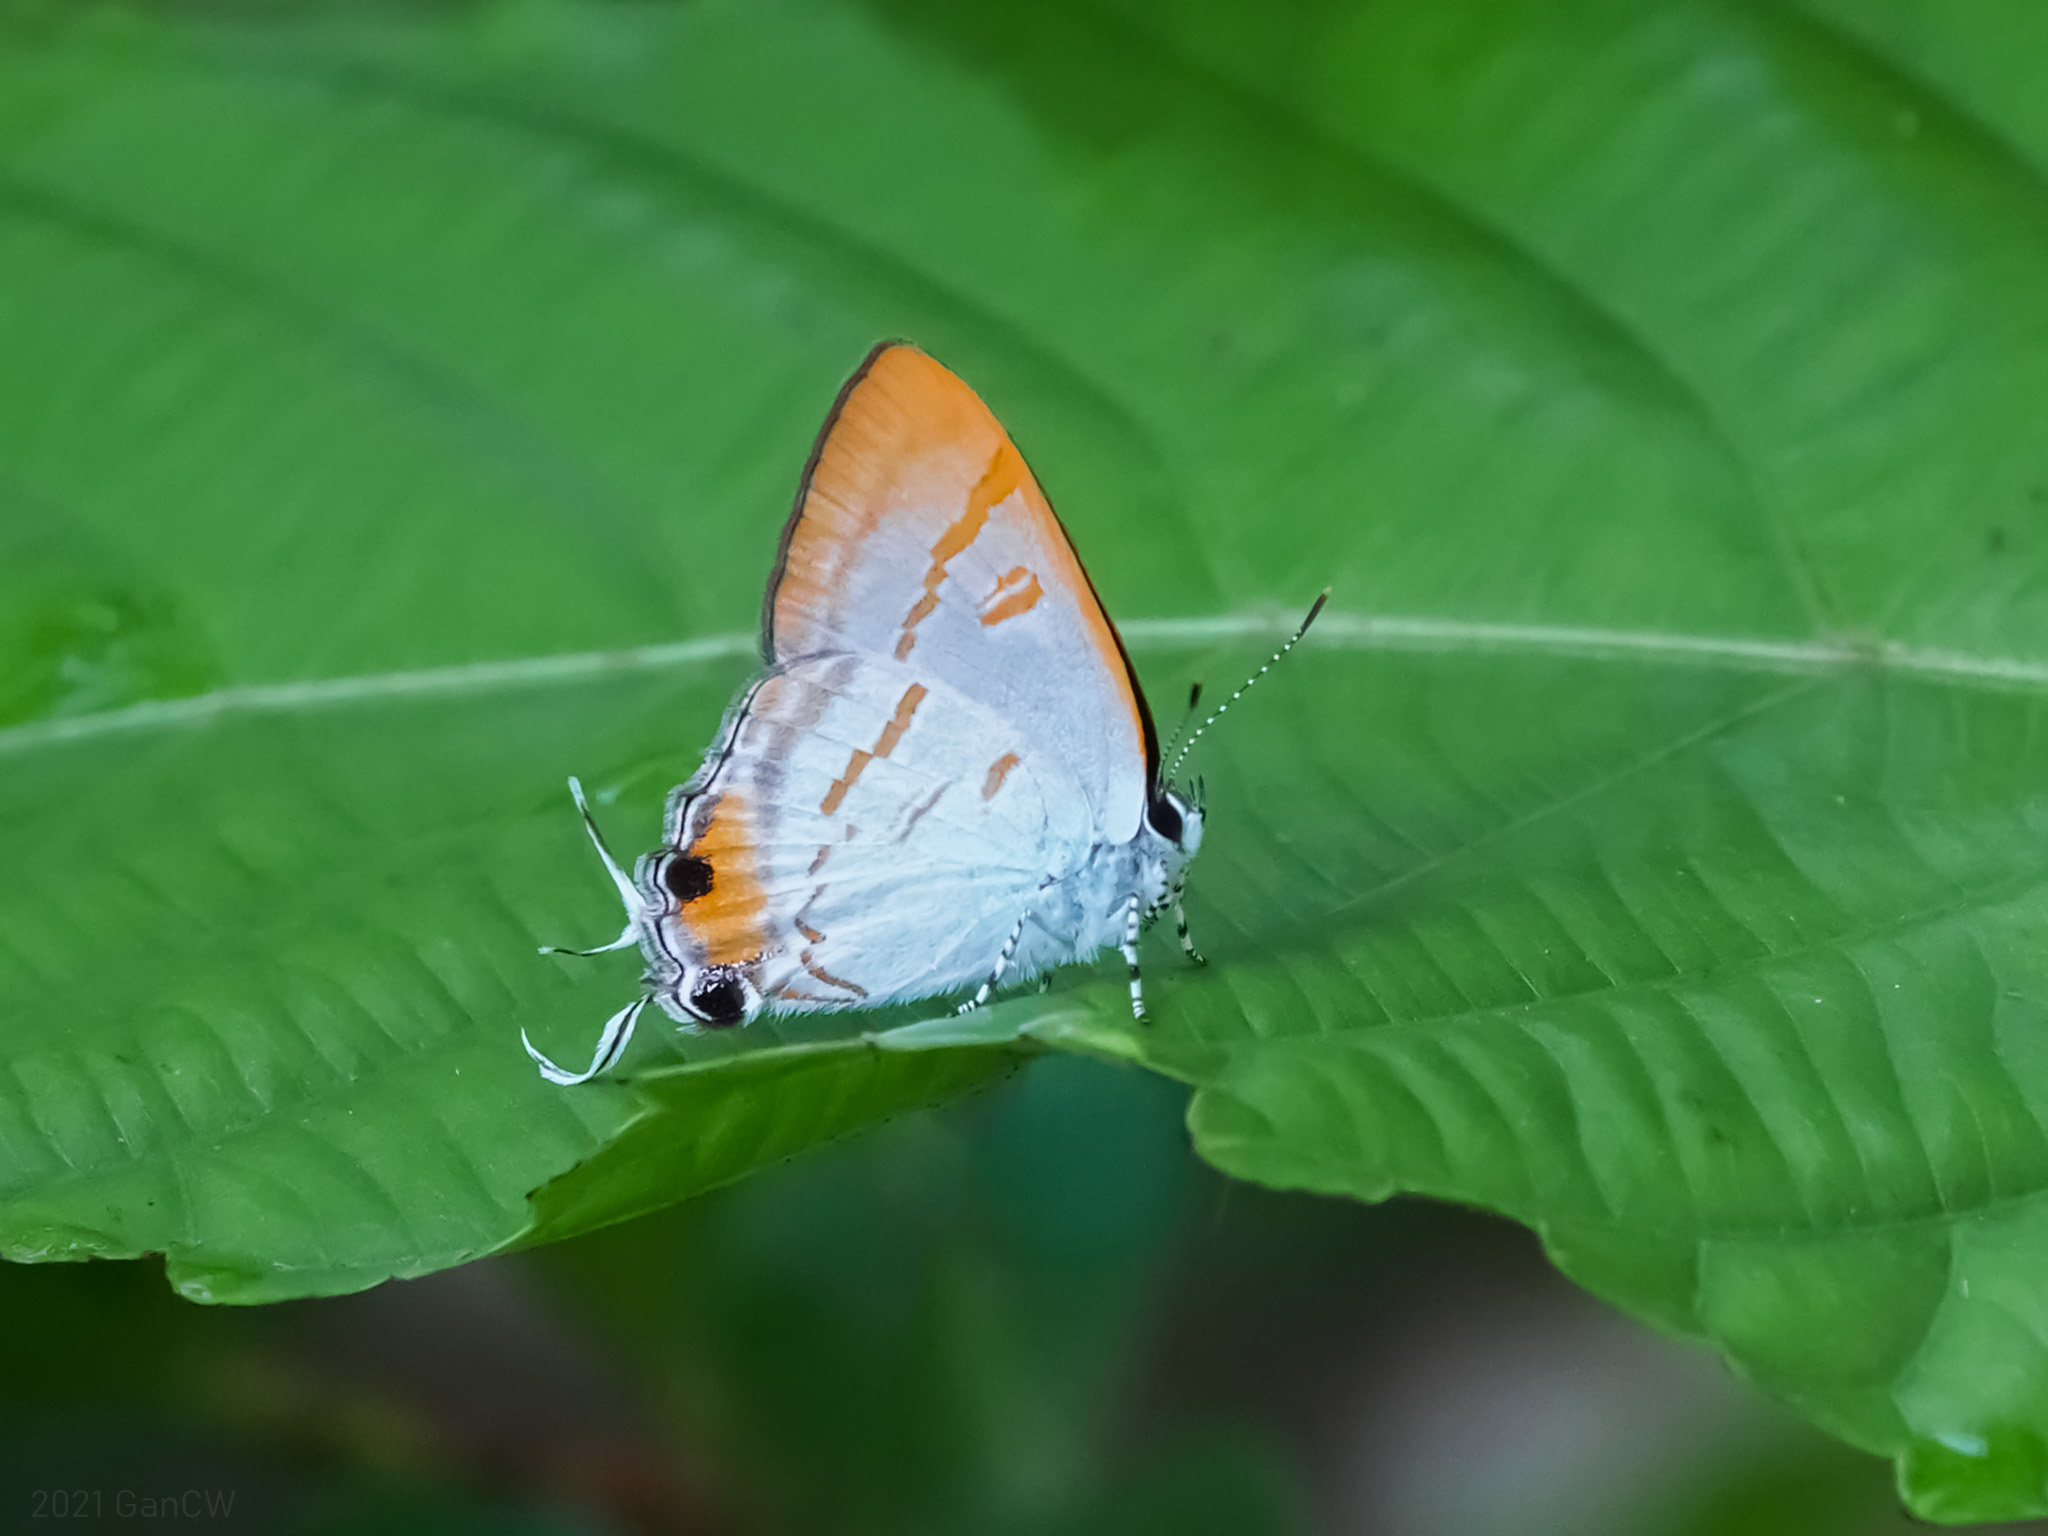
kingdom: Animalia
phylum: Arthropoda
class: Insecta
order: Lepidoptera
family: Lycaenidae
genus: Hypolycaena
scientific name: Hypolycaena thecloides
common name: Dark tit
